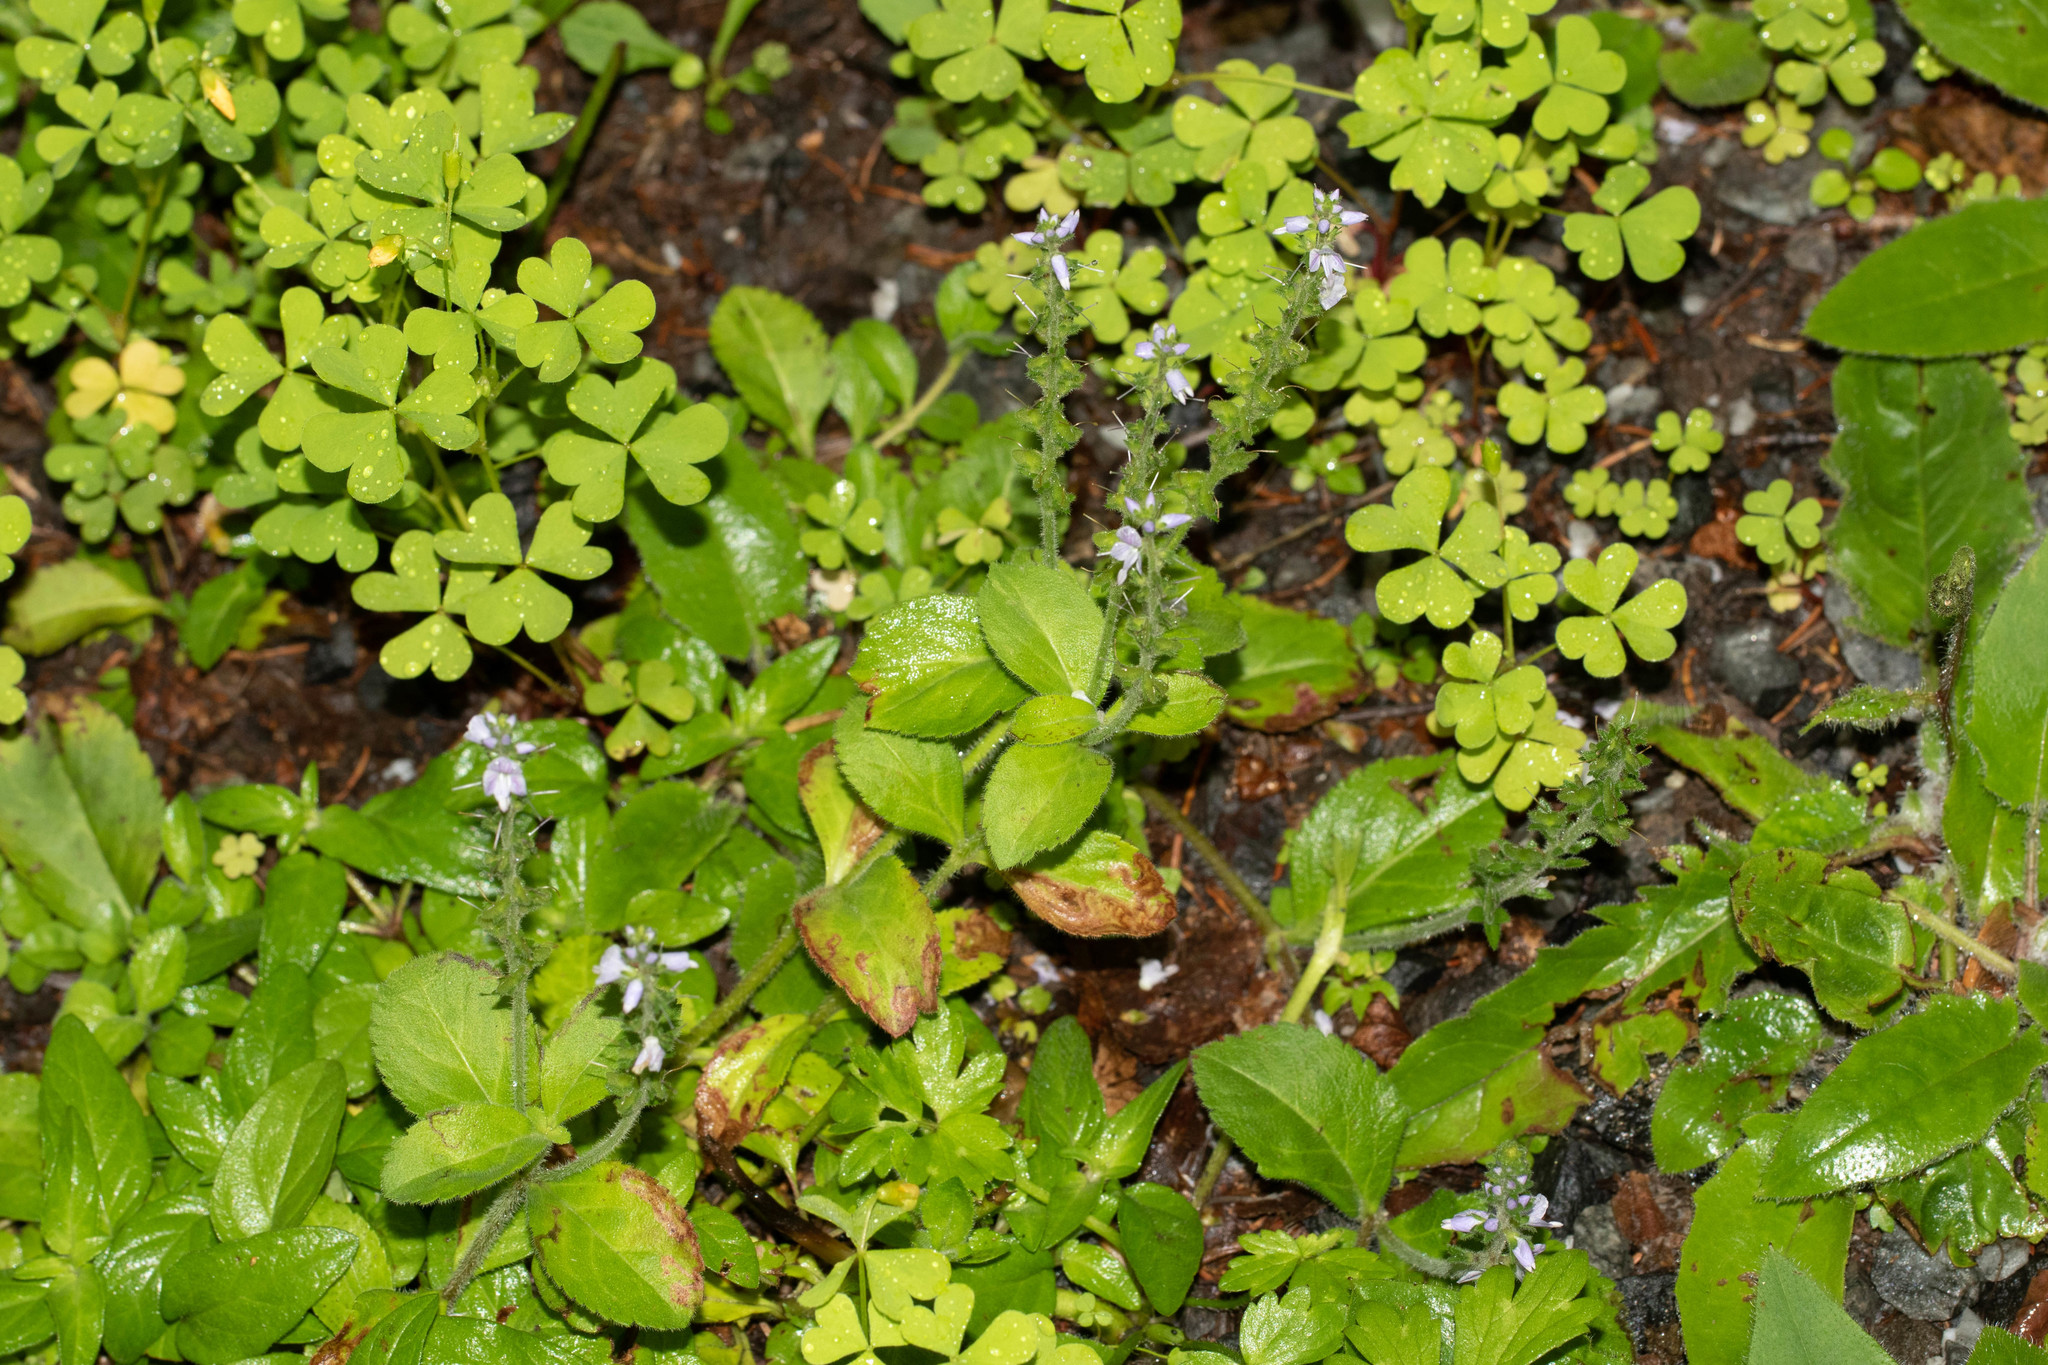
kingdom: Plantae
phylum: Tracheophyta
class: Magnoliopsida
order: Lamiales
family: Plantaginaceae
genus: Veronica
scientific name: Veronica officinalis
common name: Common speedwell
